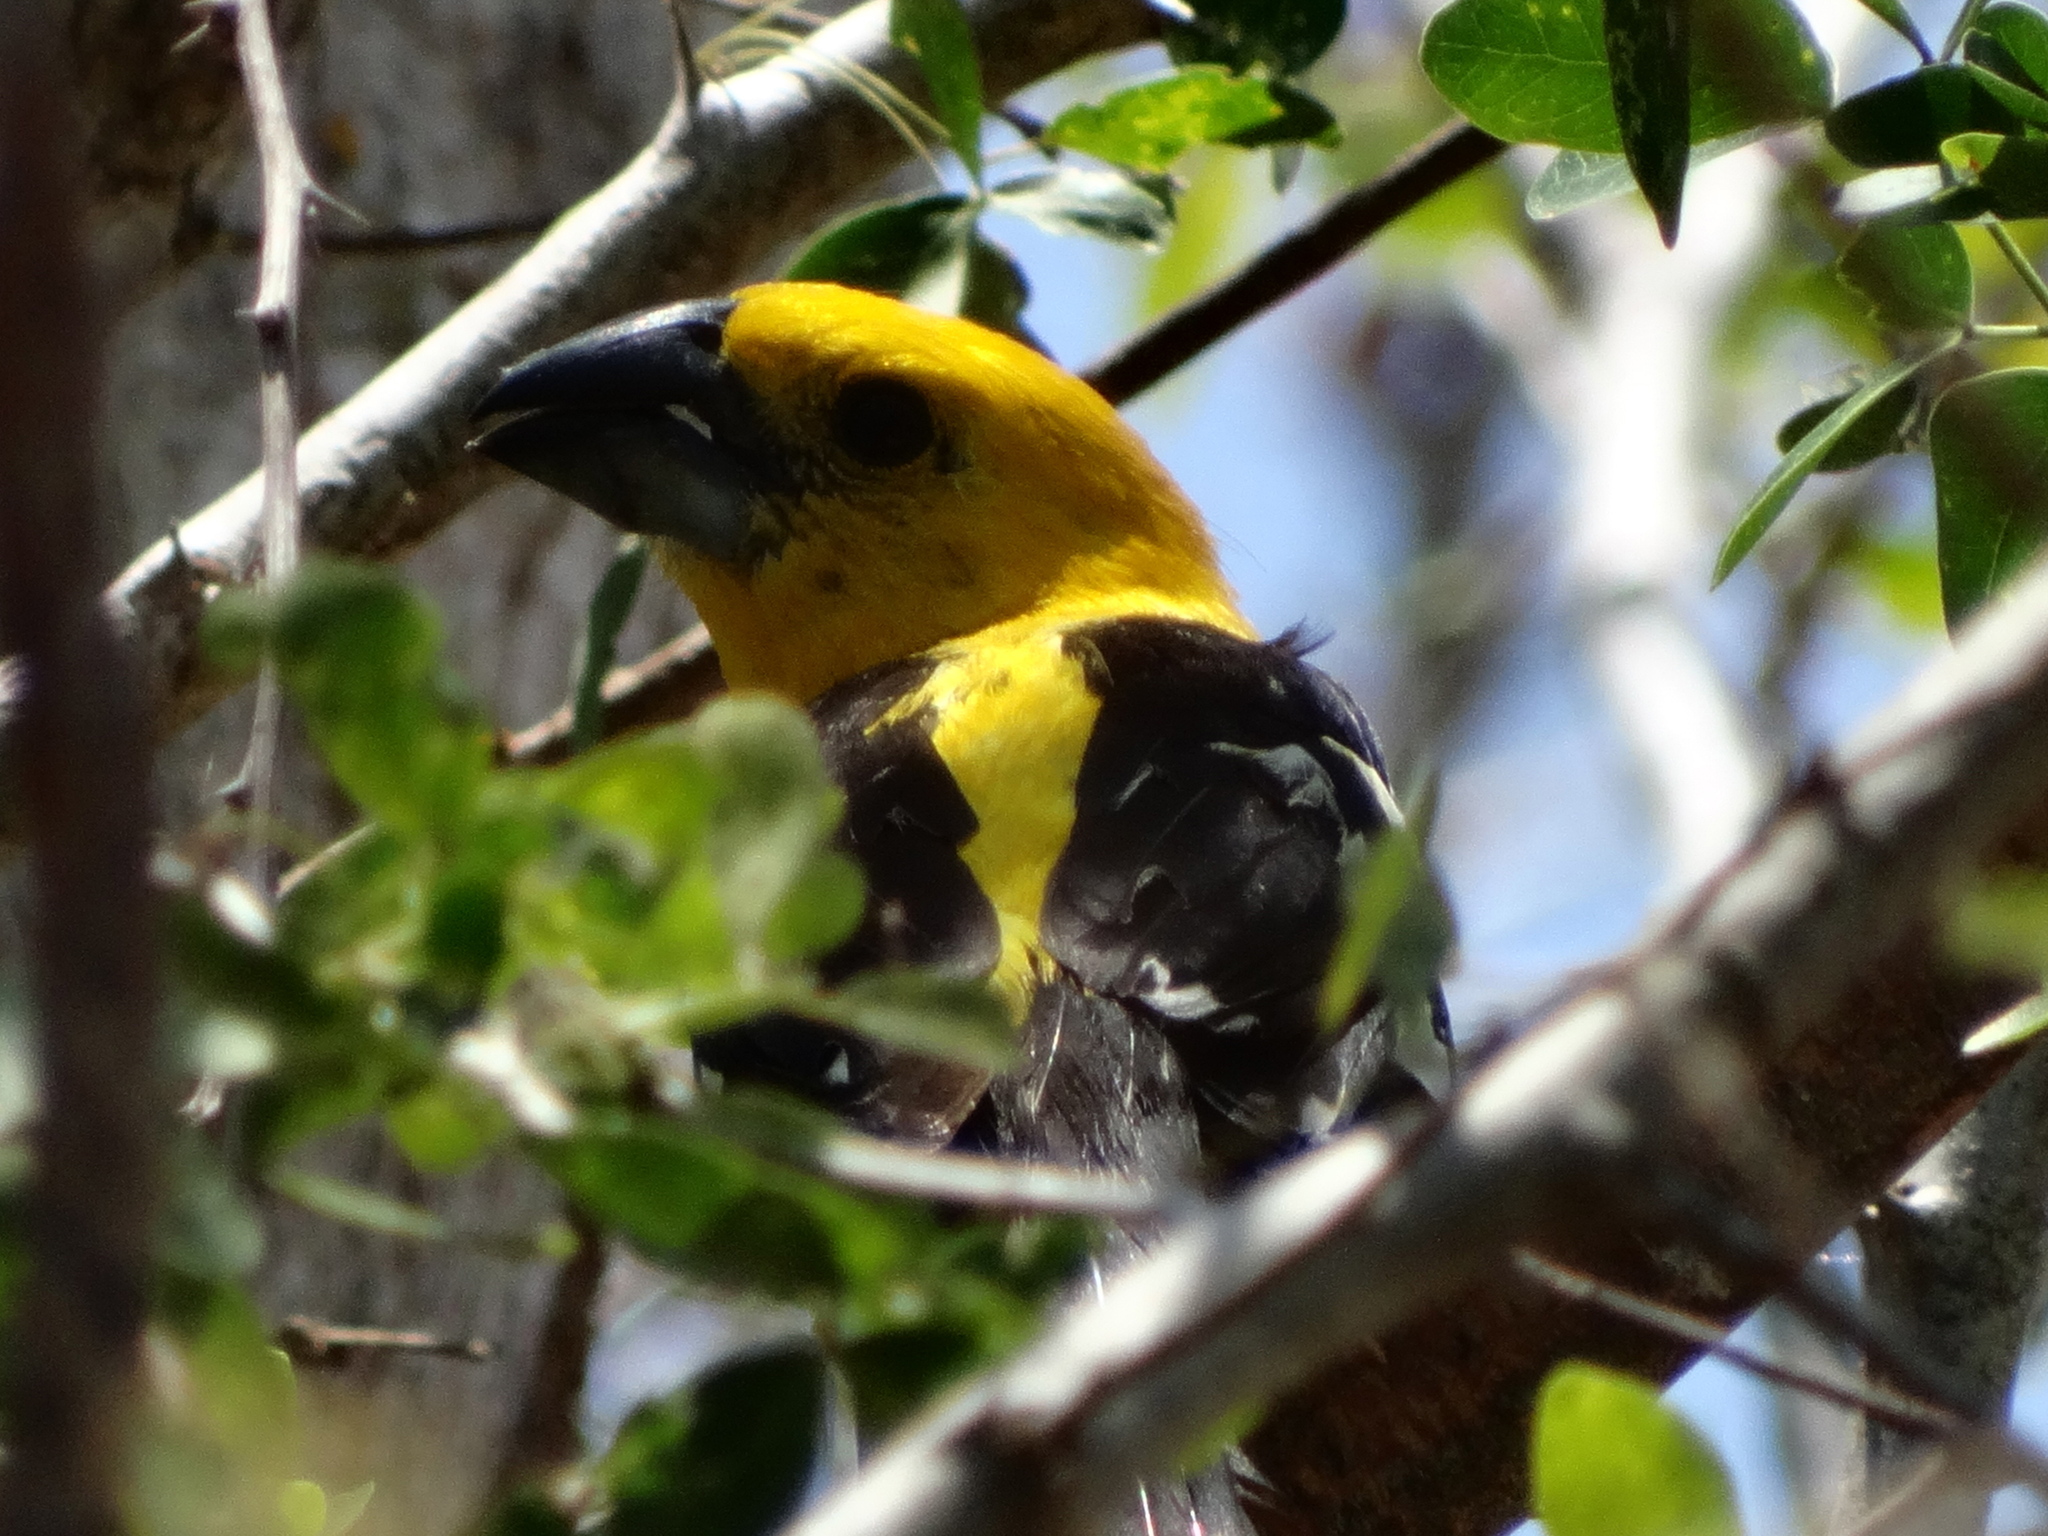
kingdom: Animalia
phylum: Chordata
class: Aves
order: Passeriformes
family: Cardinalidae
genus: Pheucticus
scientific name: Pheucticus chrysopeplus
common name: Yellow grosbeak
